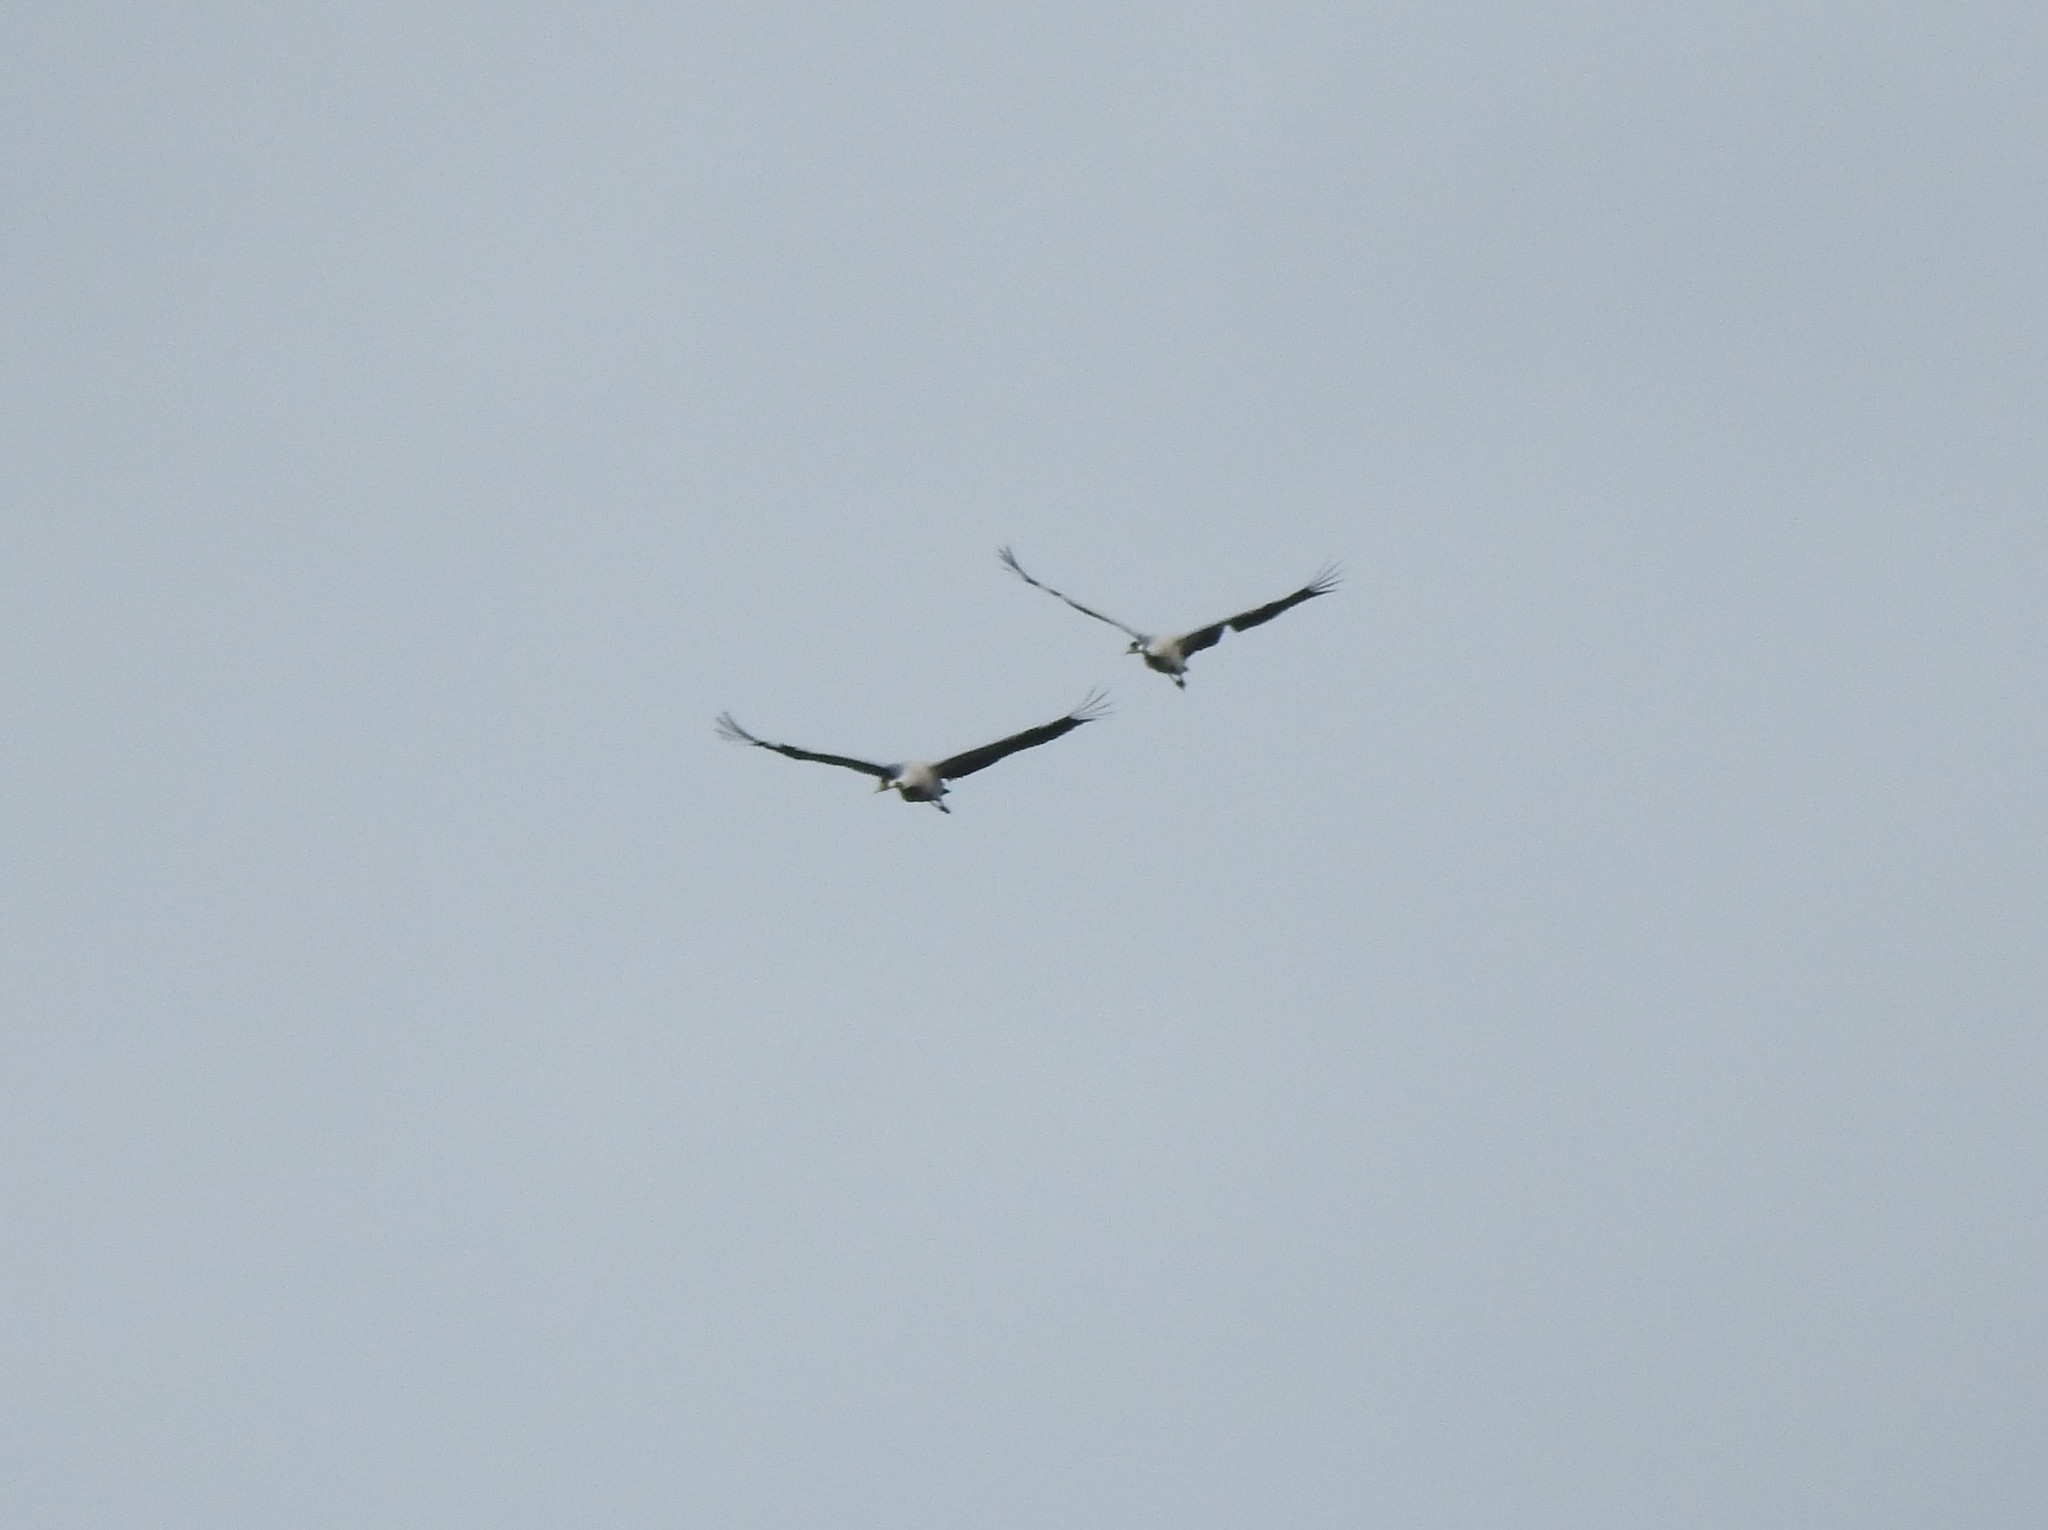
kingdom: Animalia
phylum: Chordata
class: Aves
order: Gruiformes
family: Gruidae
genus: Grus
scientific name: Grus grus
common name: Common crane
